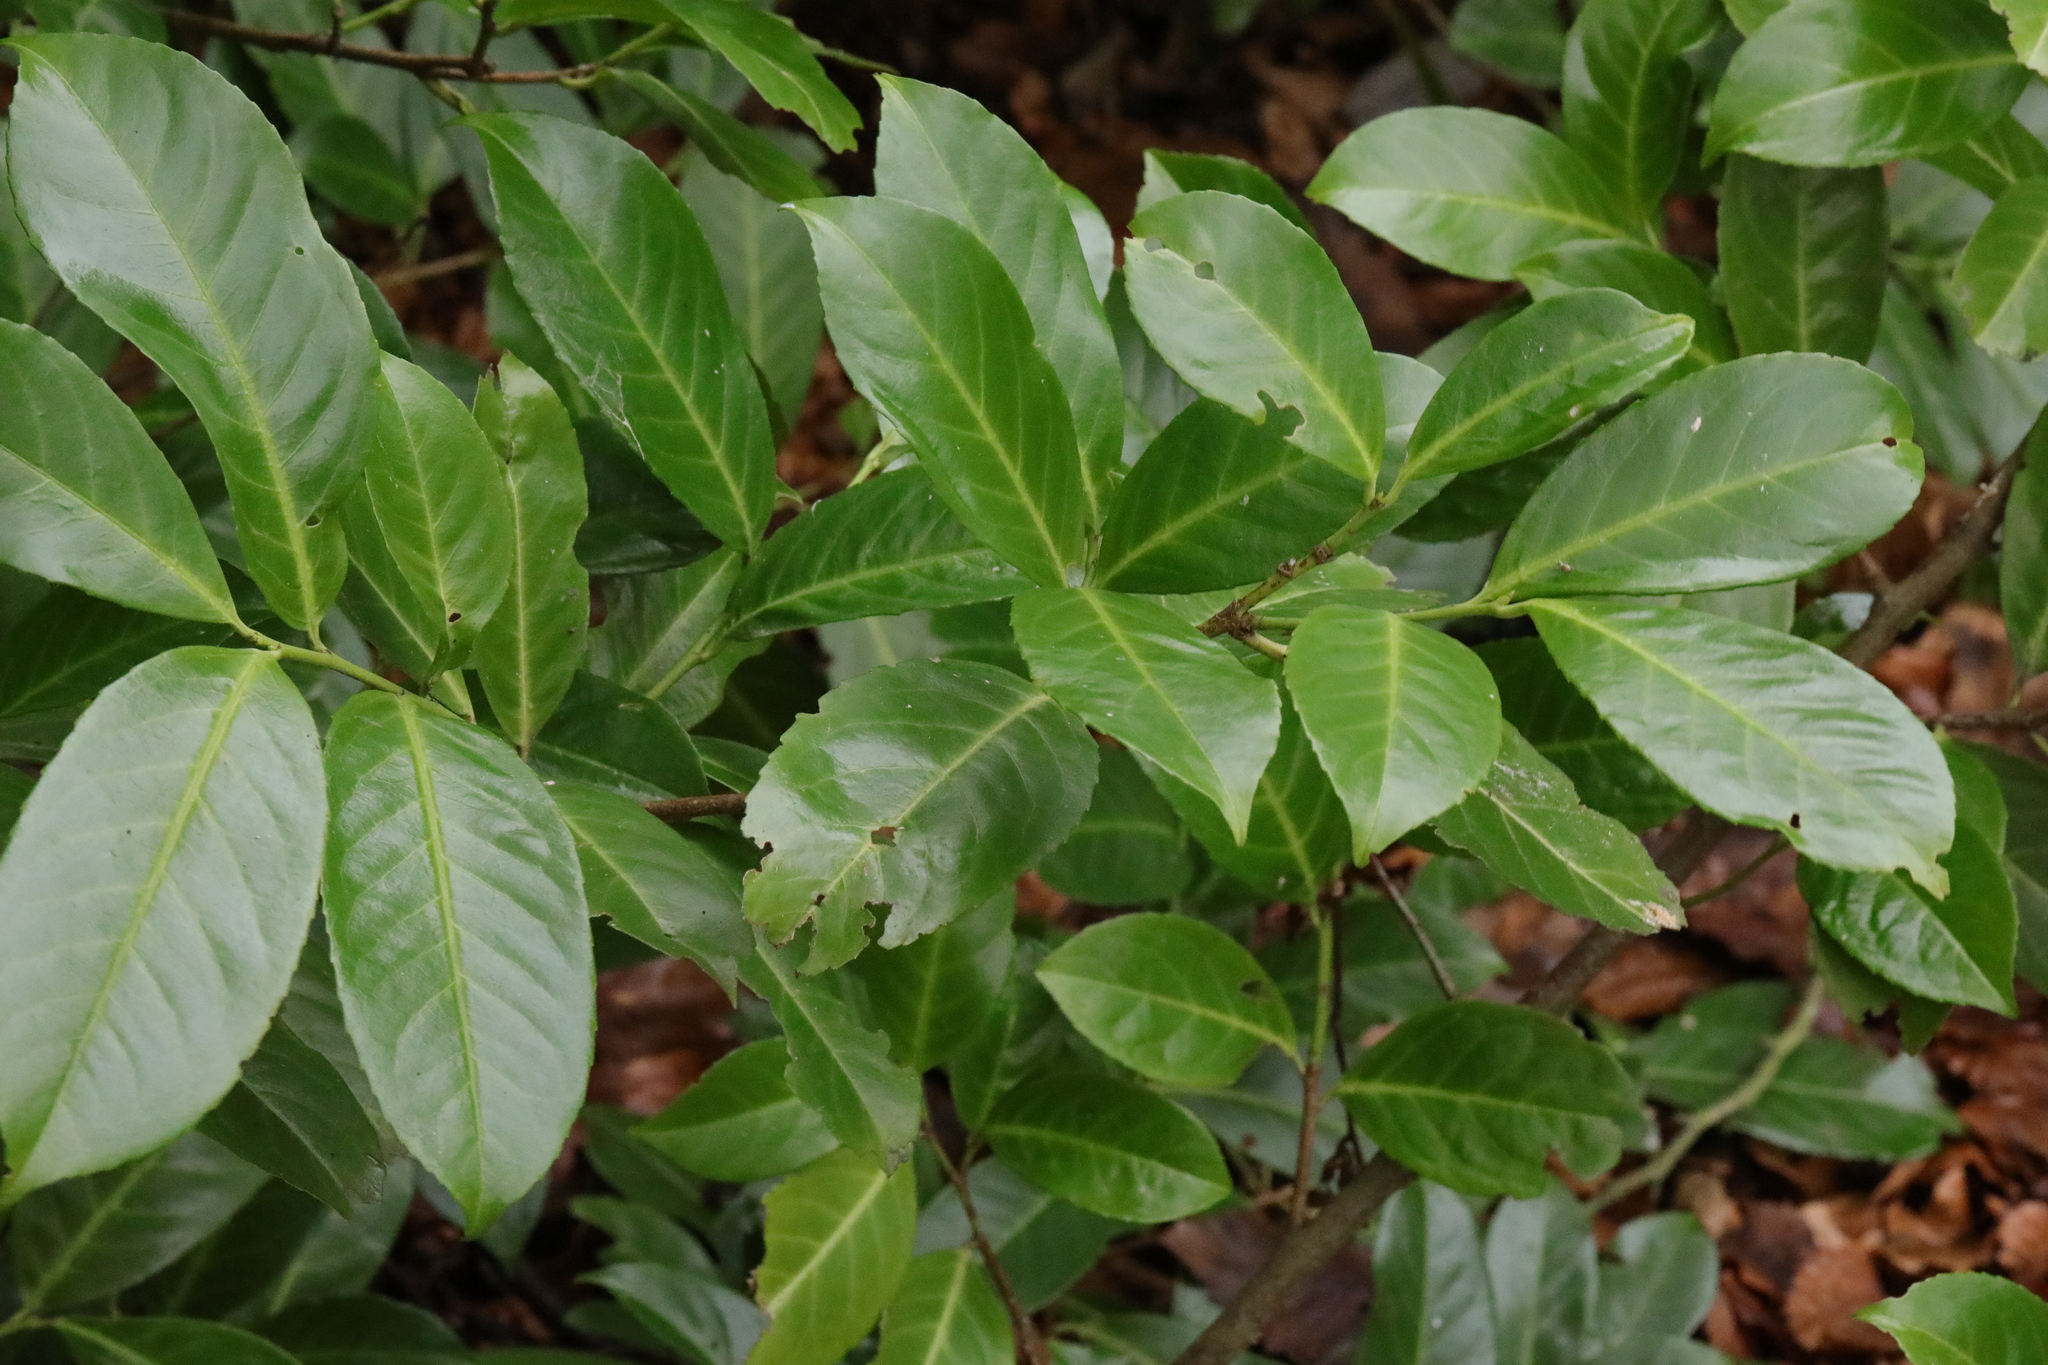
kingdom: Plantae
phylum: Tracheophyta
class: Magnoliopsida
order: Rosales
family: Rosaceae
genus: Prunus
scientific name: Prunus laurocerasus
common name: Cherry laurel
